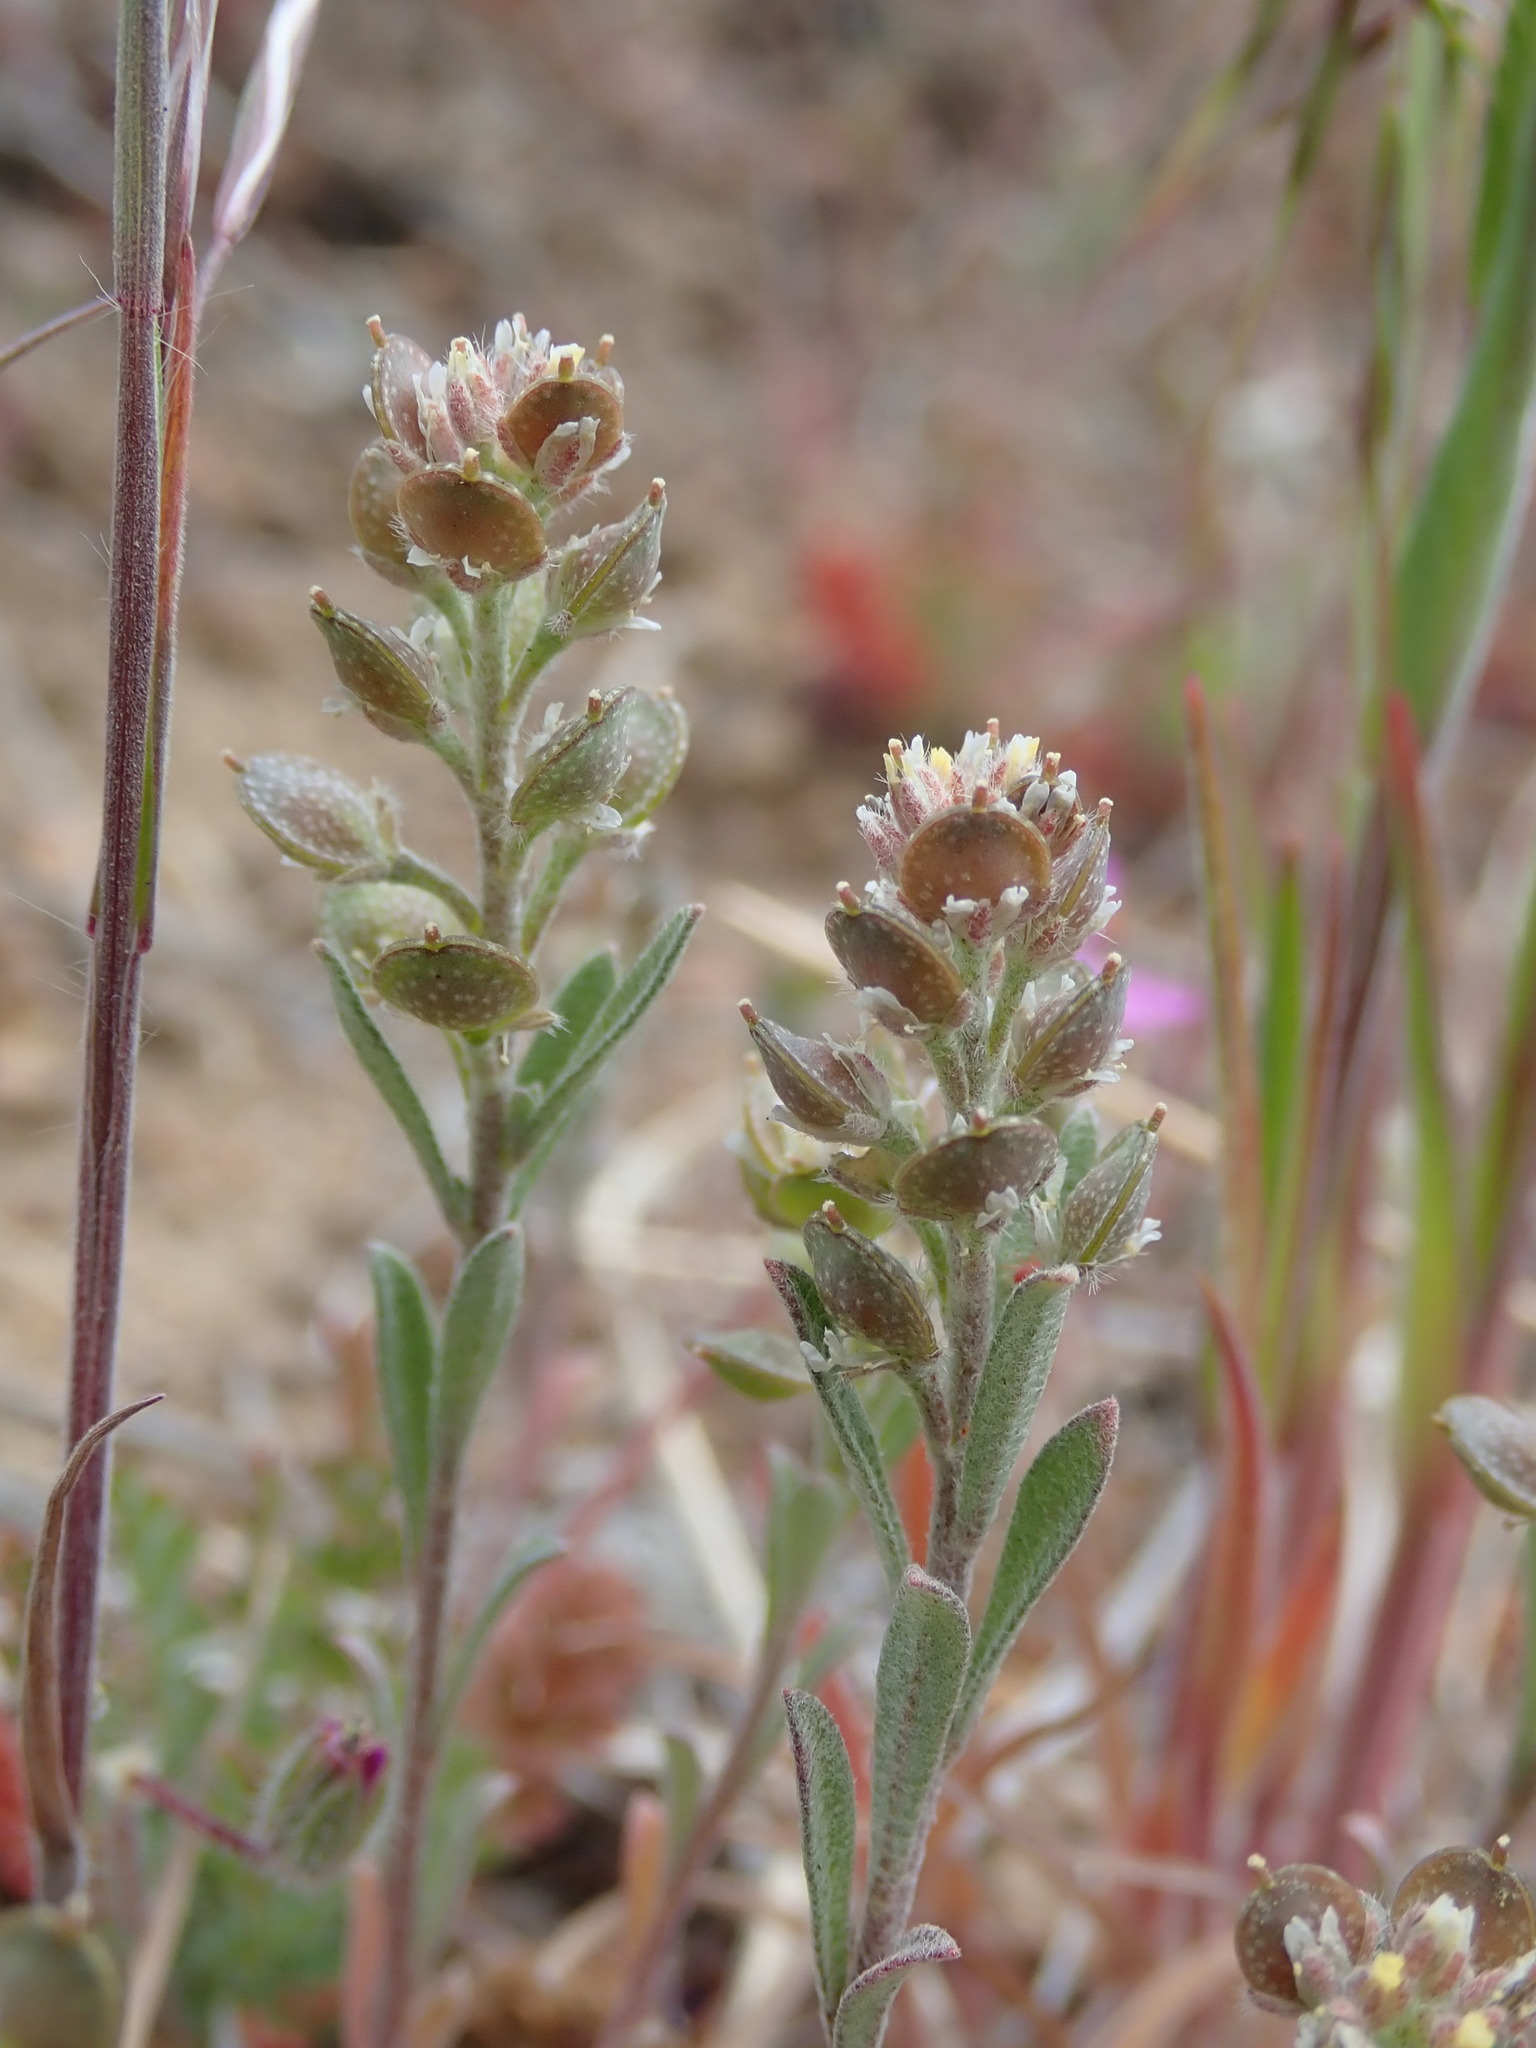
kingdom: Plantae
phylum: Tracheophyta
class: Magnoliopsida
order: Brassicales
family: Brassicaceae
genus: Alyssum
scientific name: Alyssum turkestanicum
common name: Desert alyssum
